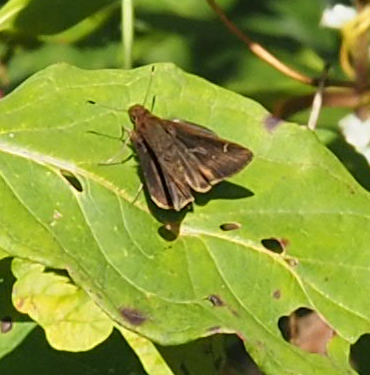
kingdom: Animalia
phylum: Arthropoda
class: Insecta
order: Lepidoptera
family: Hesperiidae
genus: Lerema
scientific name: Lerema accius
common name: Clouded skipper
